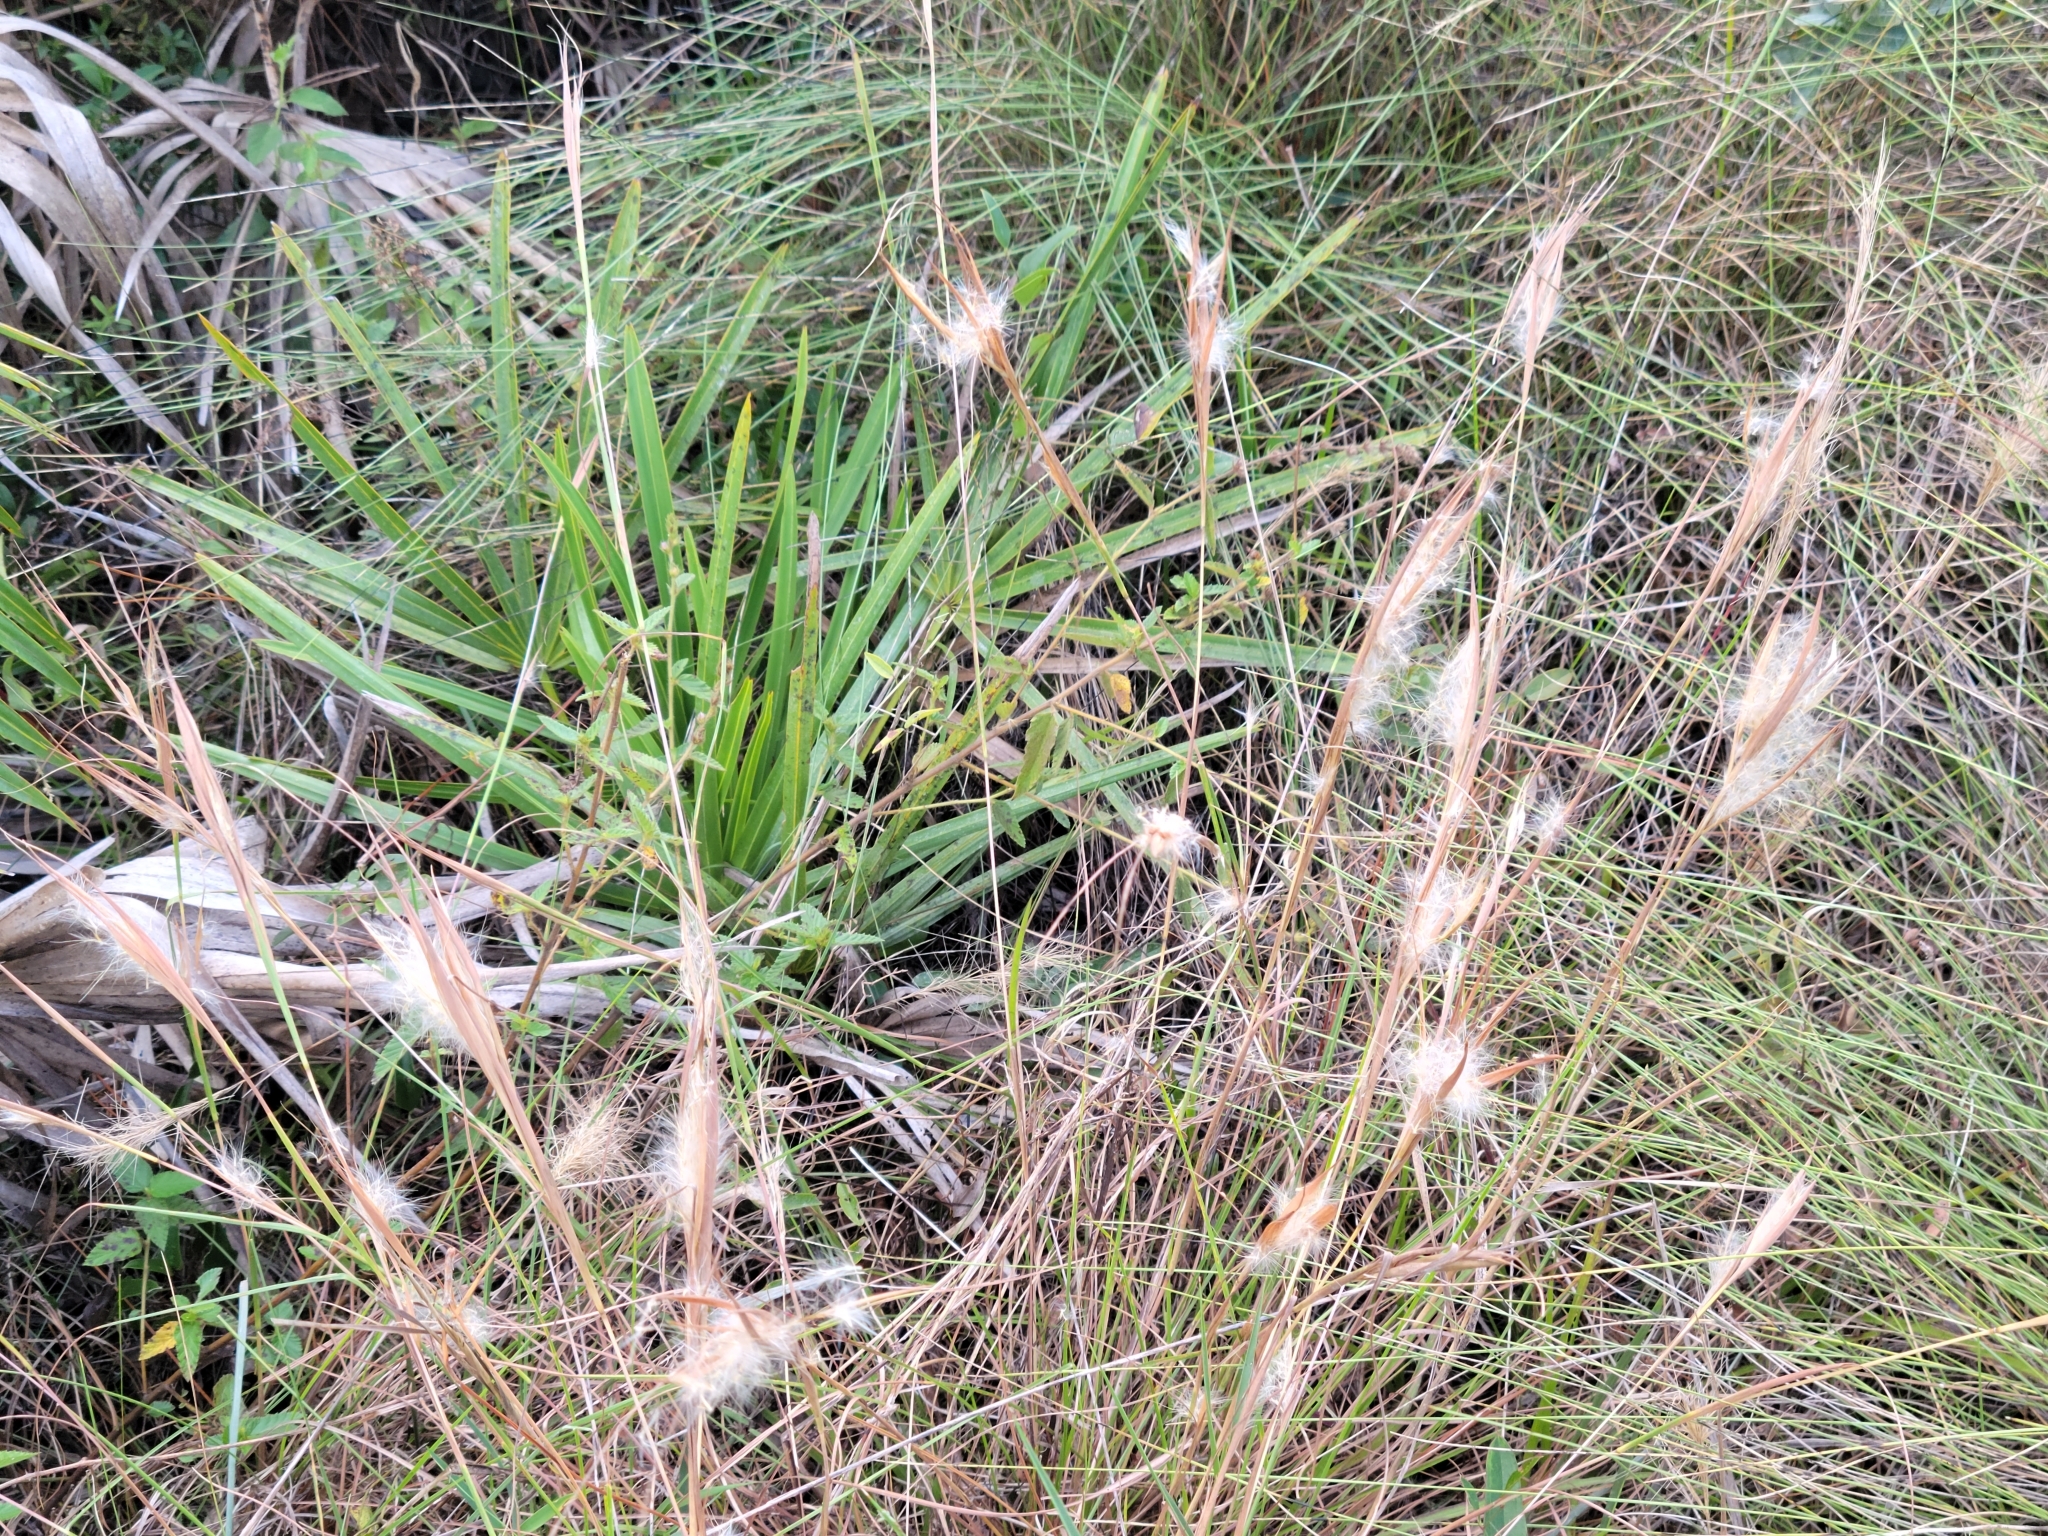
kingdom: Plantae
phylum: Tracheophyta
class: Liliopsida
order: Poales
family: Poaceae
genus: Andropogon
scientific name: Andropogon gyrans
